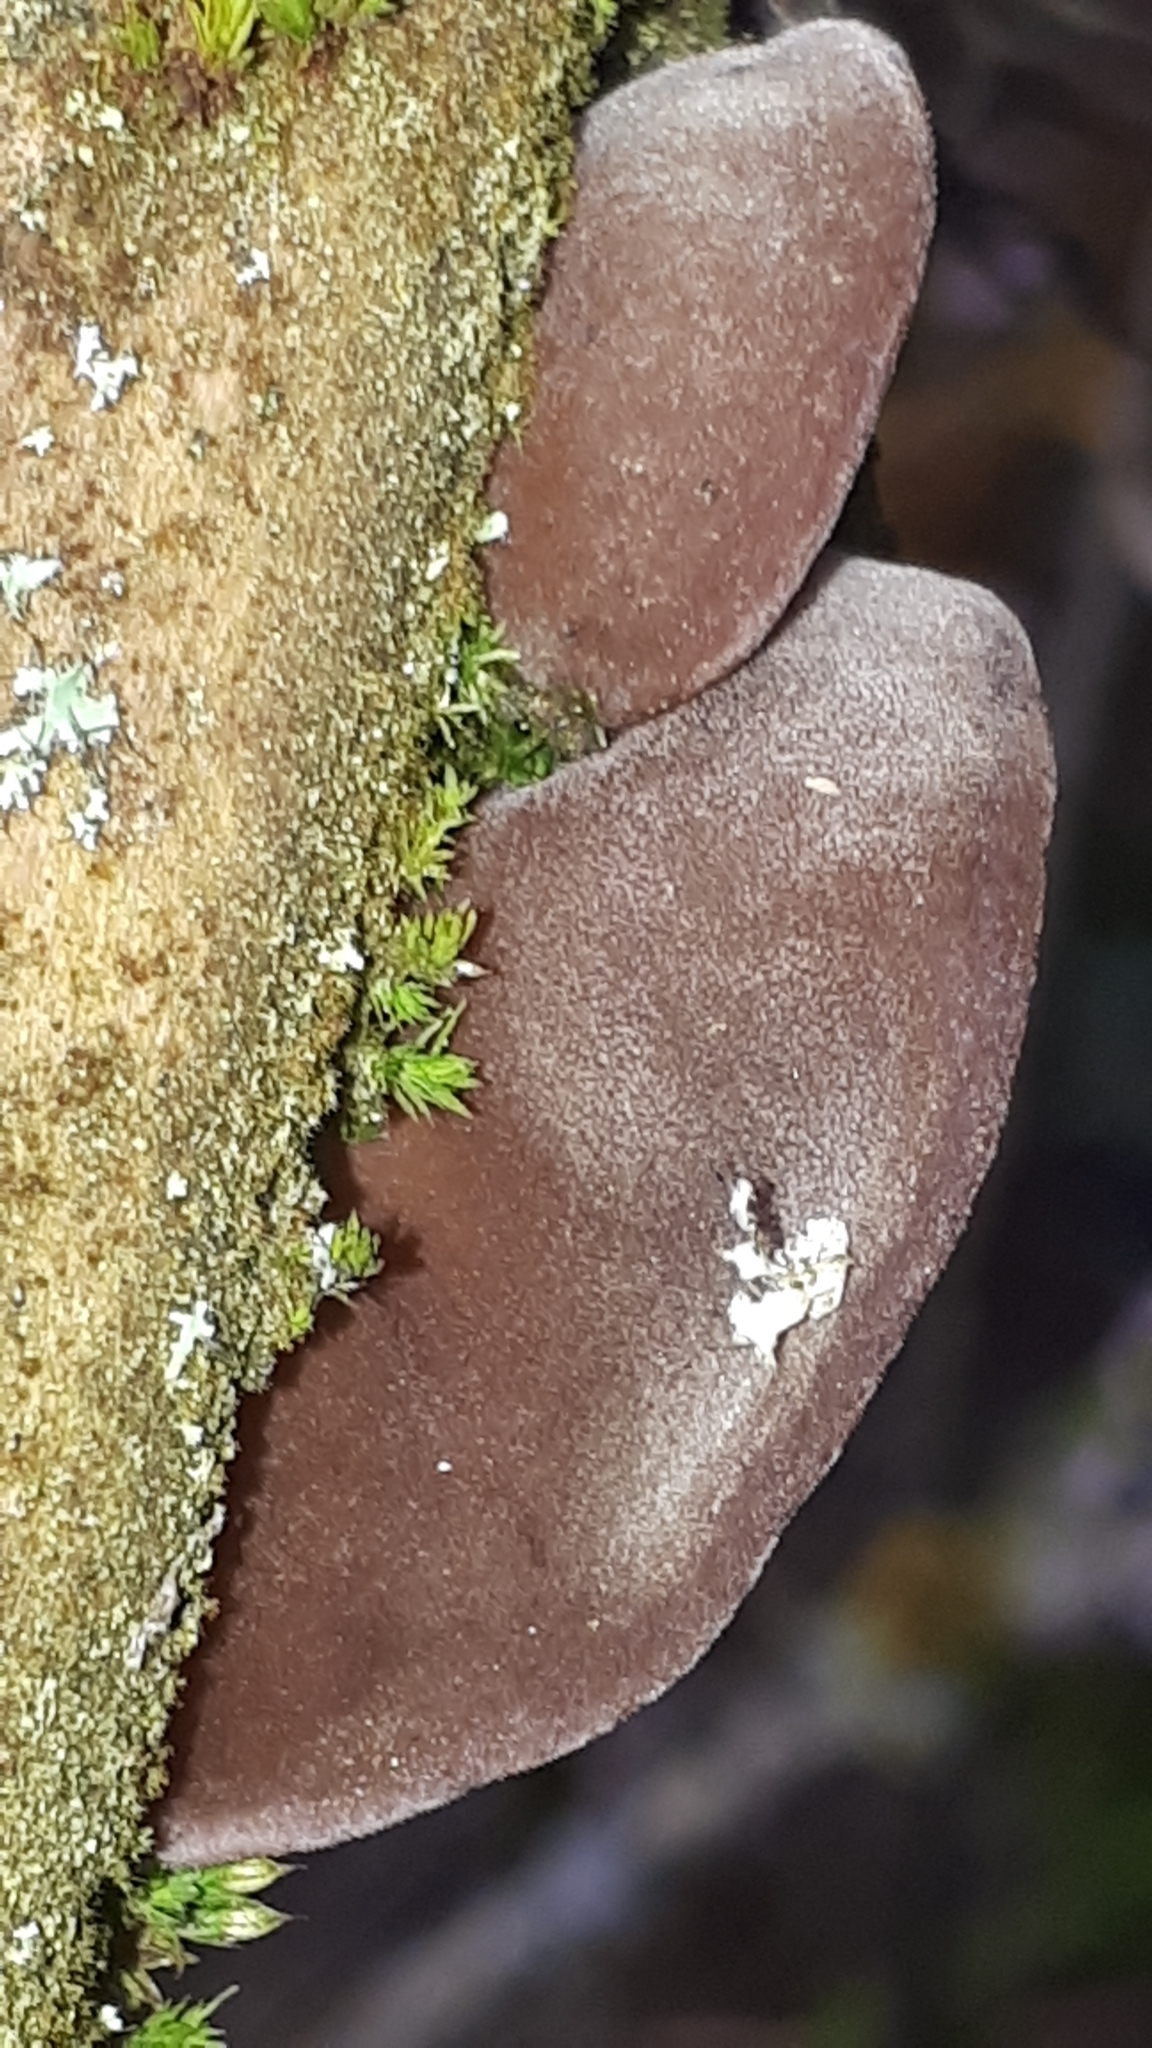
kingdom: Fungi
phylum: Basidiomycota
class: Agaricomycetes
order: Auriculariales
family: Auriculariaceae
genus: Auricularia
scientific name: Auricularia auricula-judae
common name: Jelly ear
